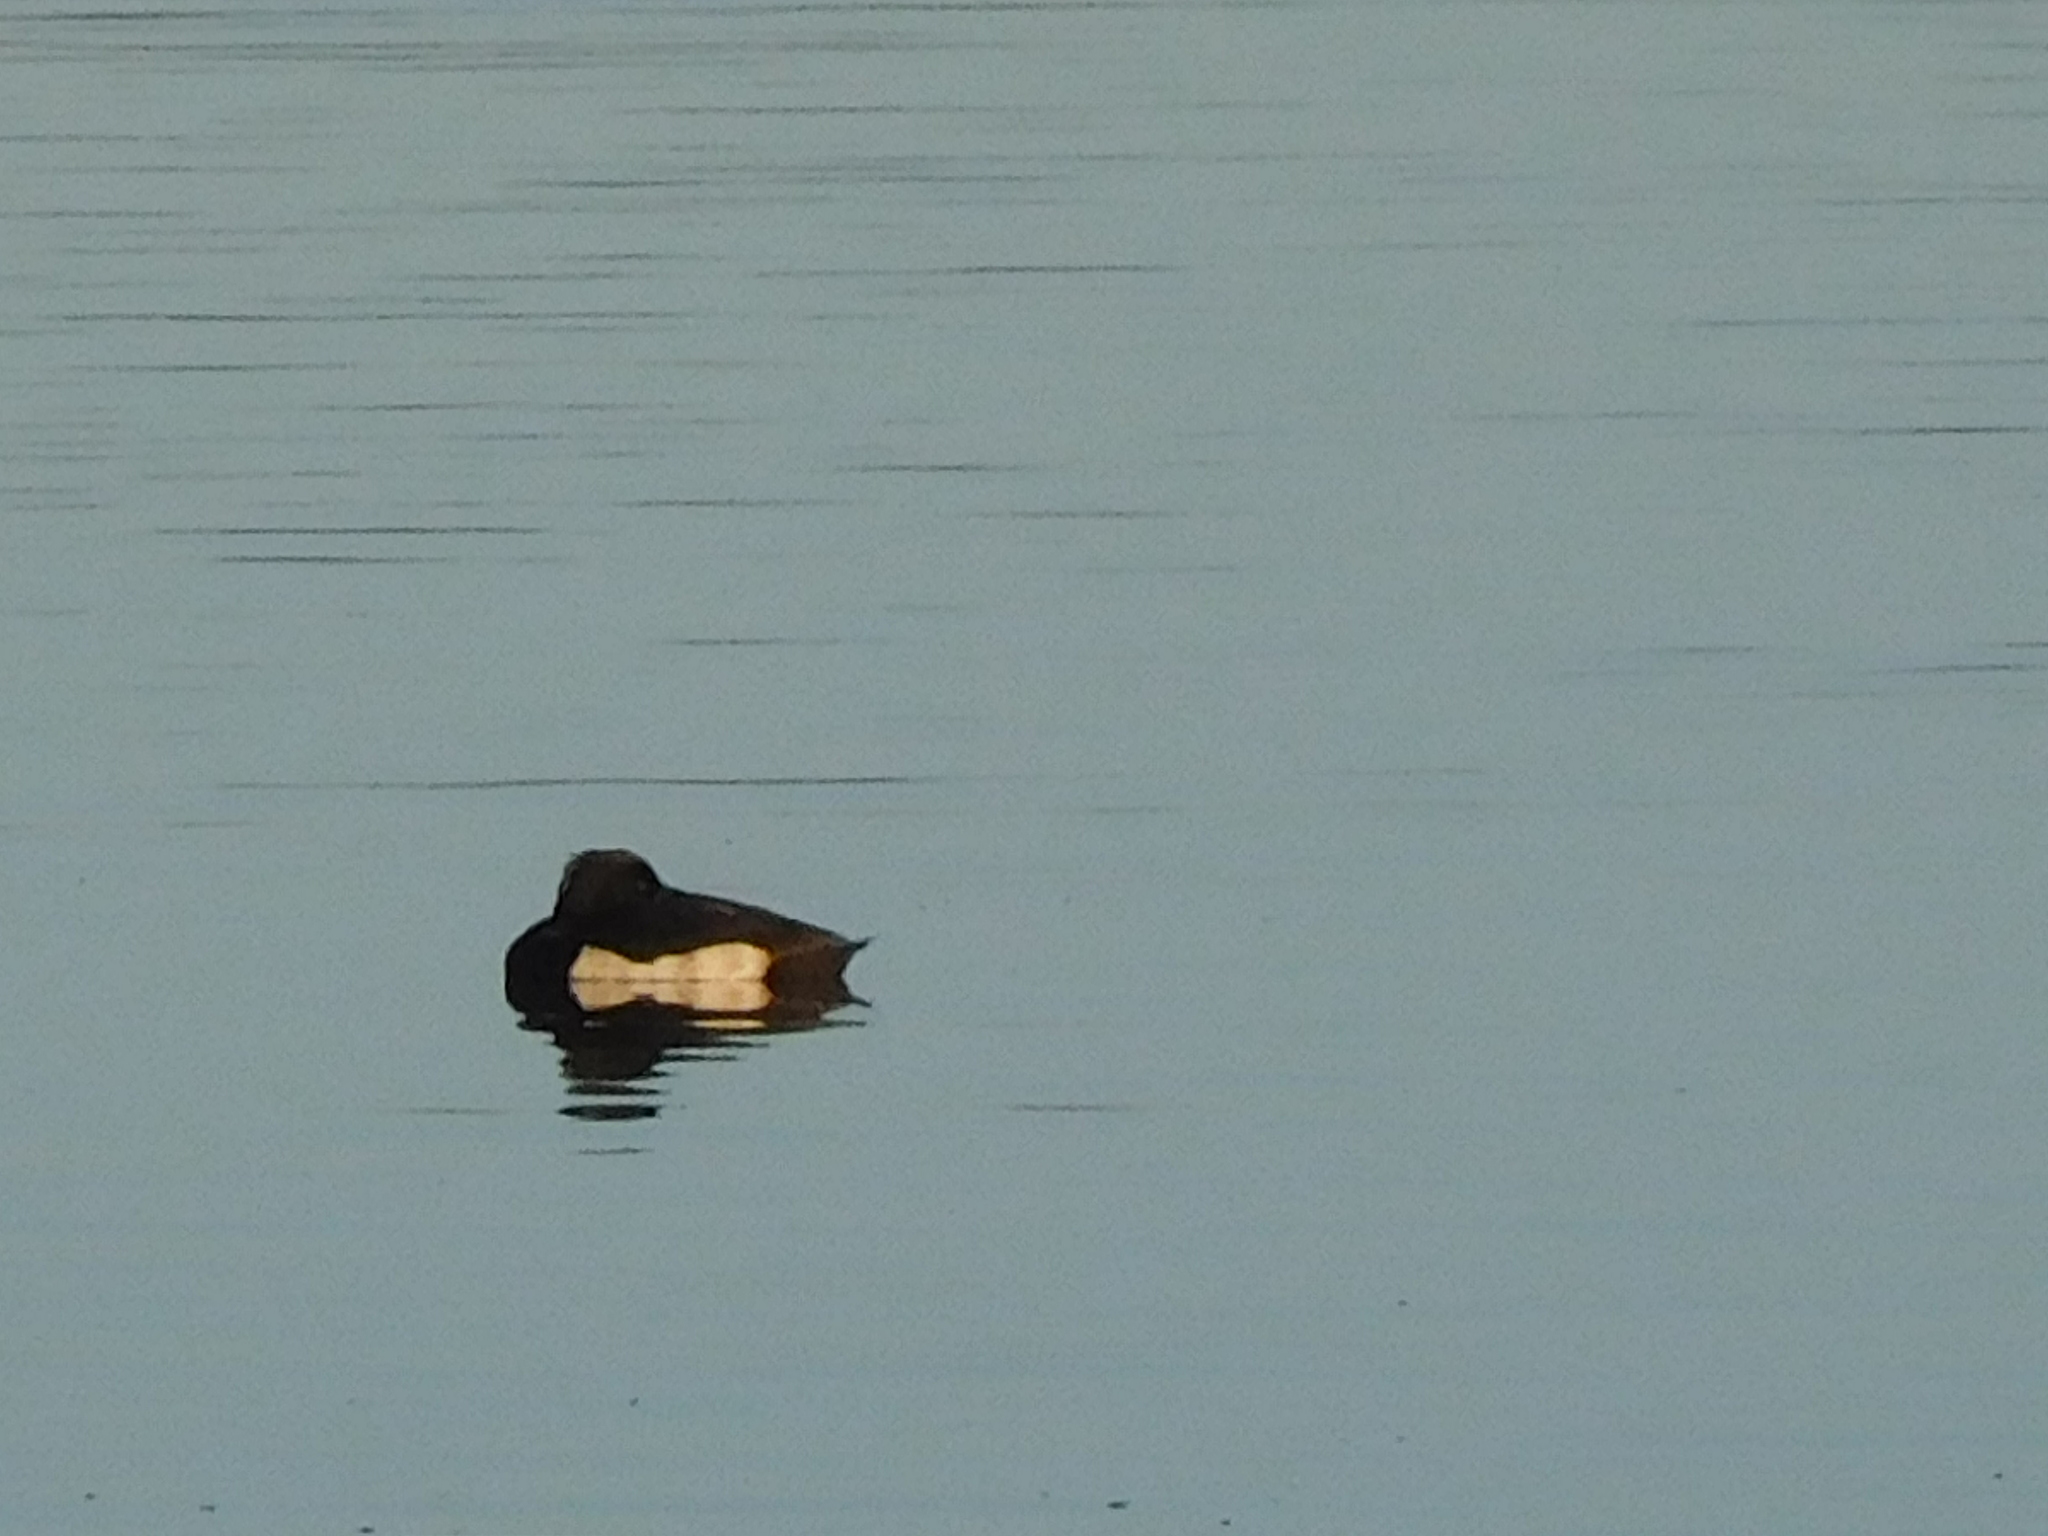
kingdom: Animalia
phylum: Chordata
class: Aves
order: Anseriformes
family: Anatidae
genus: Aythya
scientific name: Aythya fuligula
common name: Tufted duck
